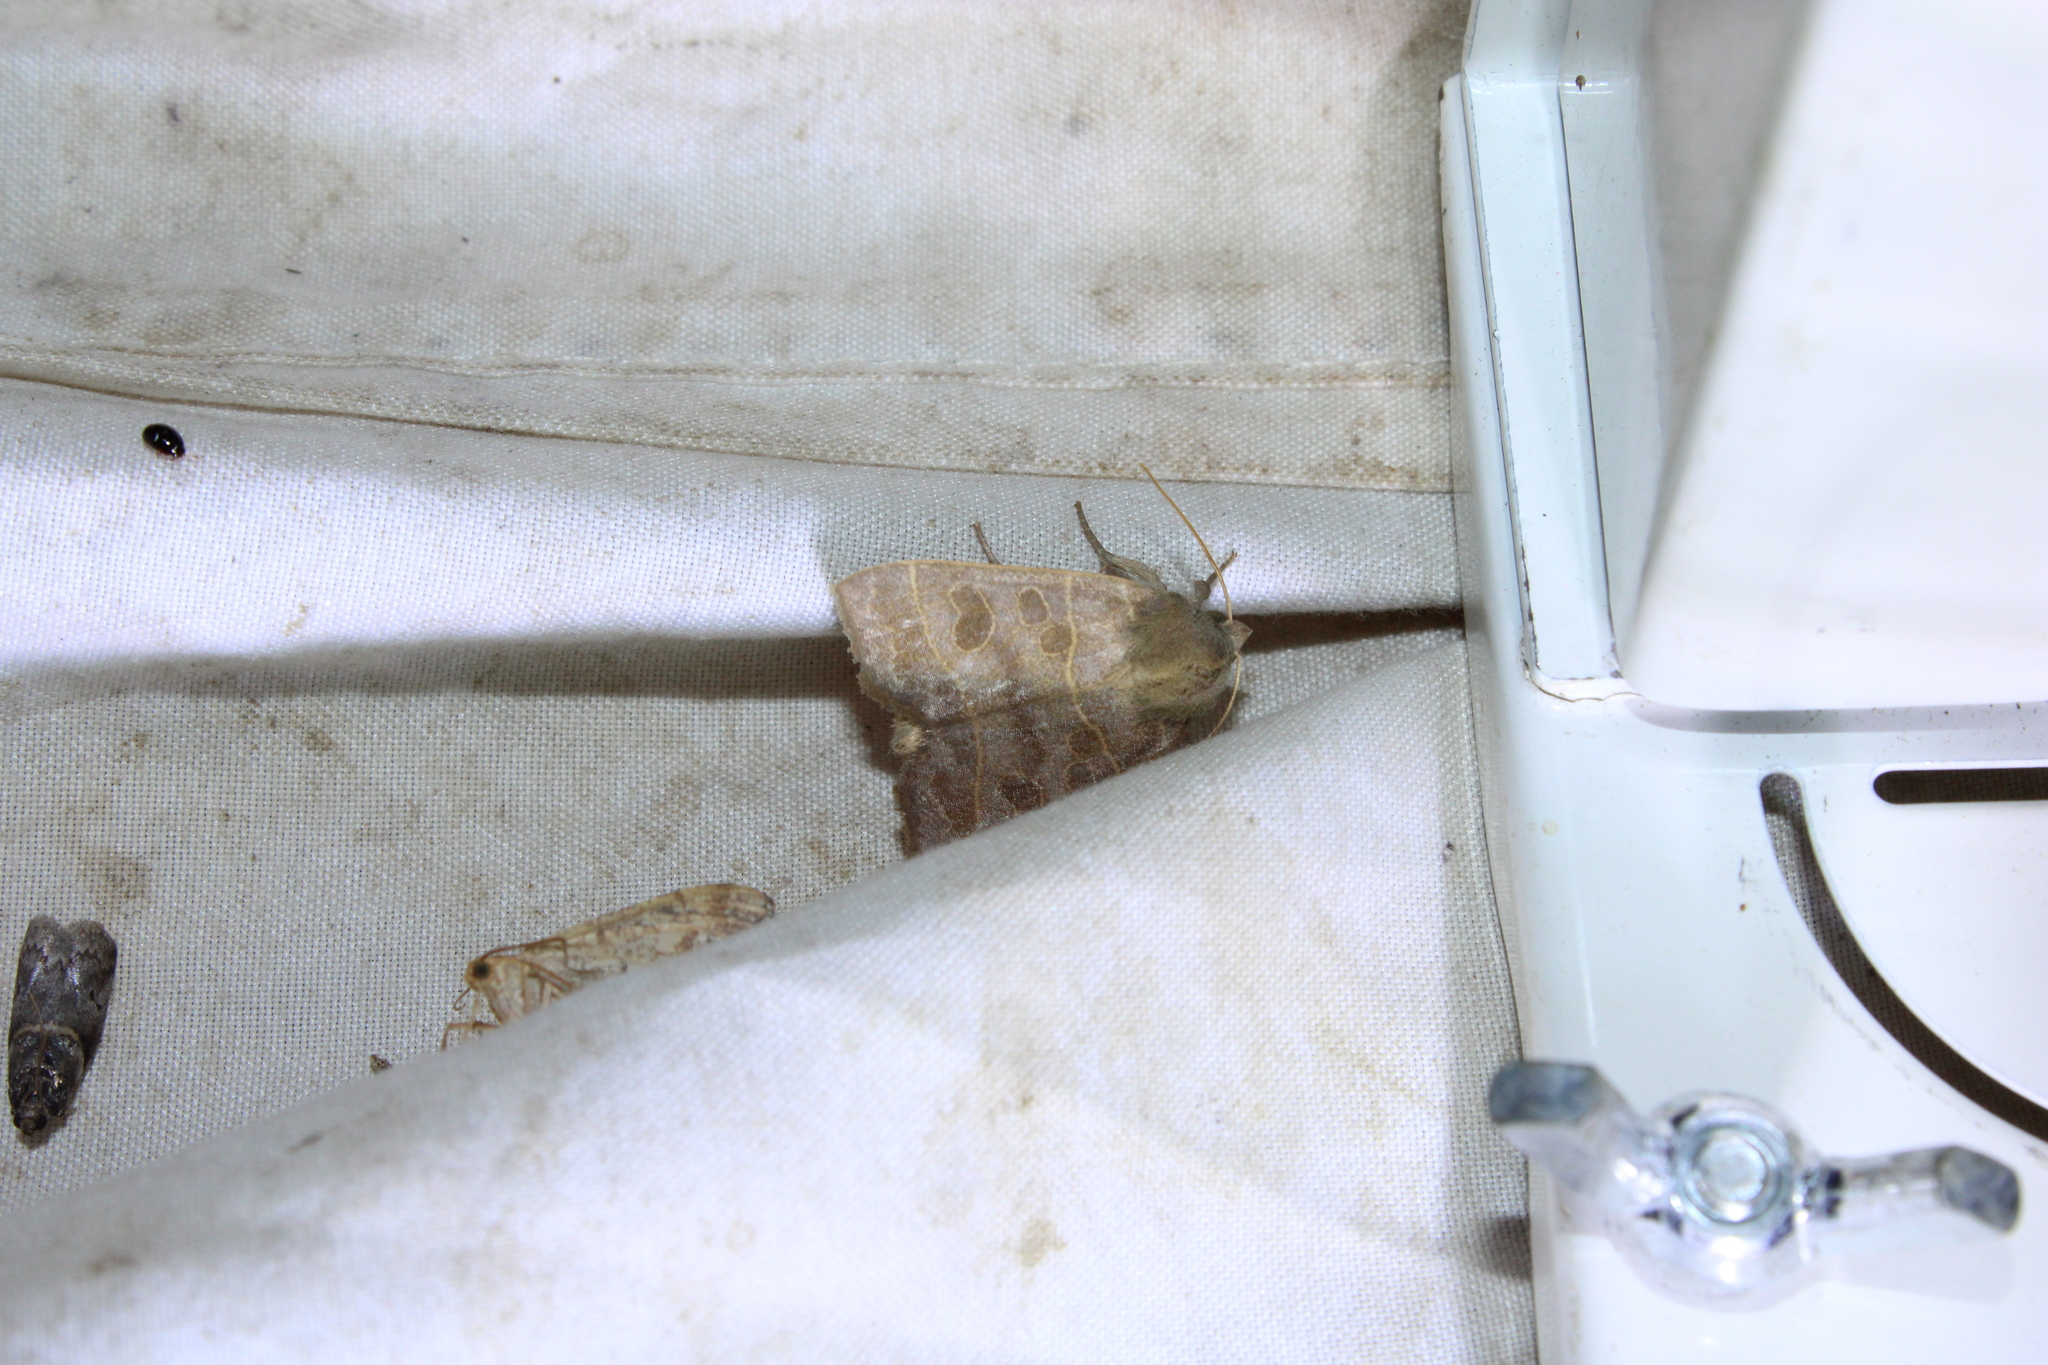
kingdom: Animalia
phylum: Arthropoda
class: Insecta
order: Lepidoptera
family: Noctuidae
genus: Ipimorpha
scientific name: Ipimorpha pleonectusa
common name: Even-lined sallow
